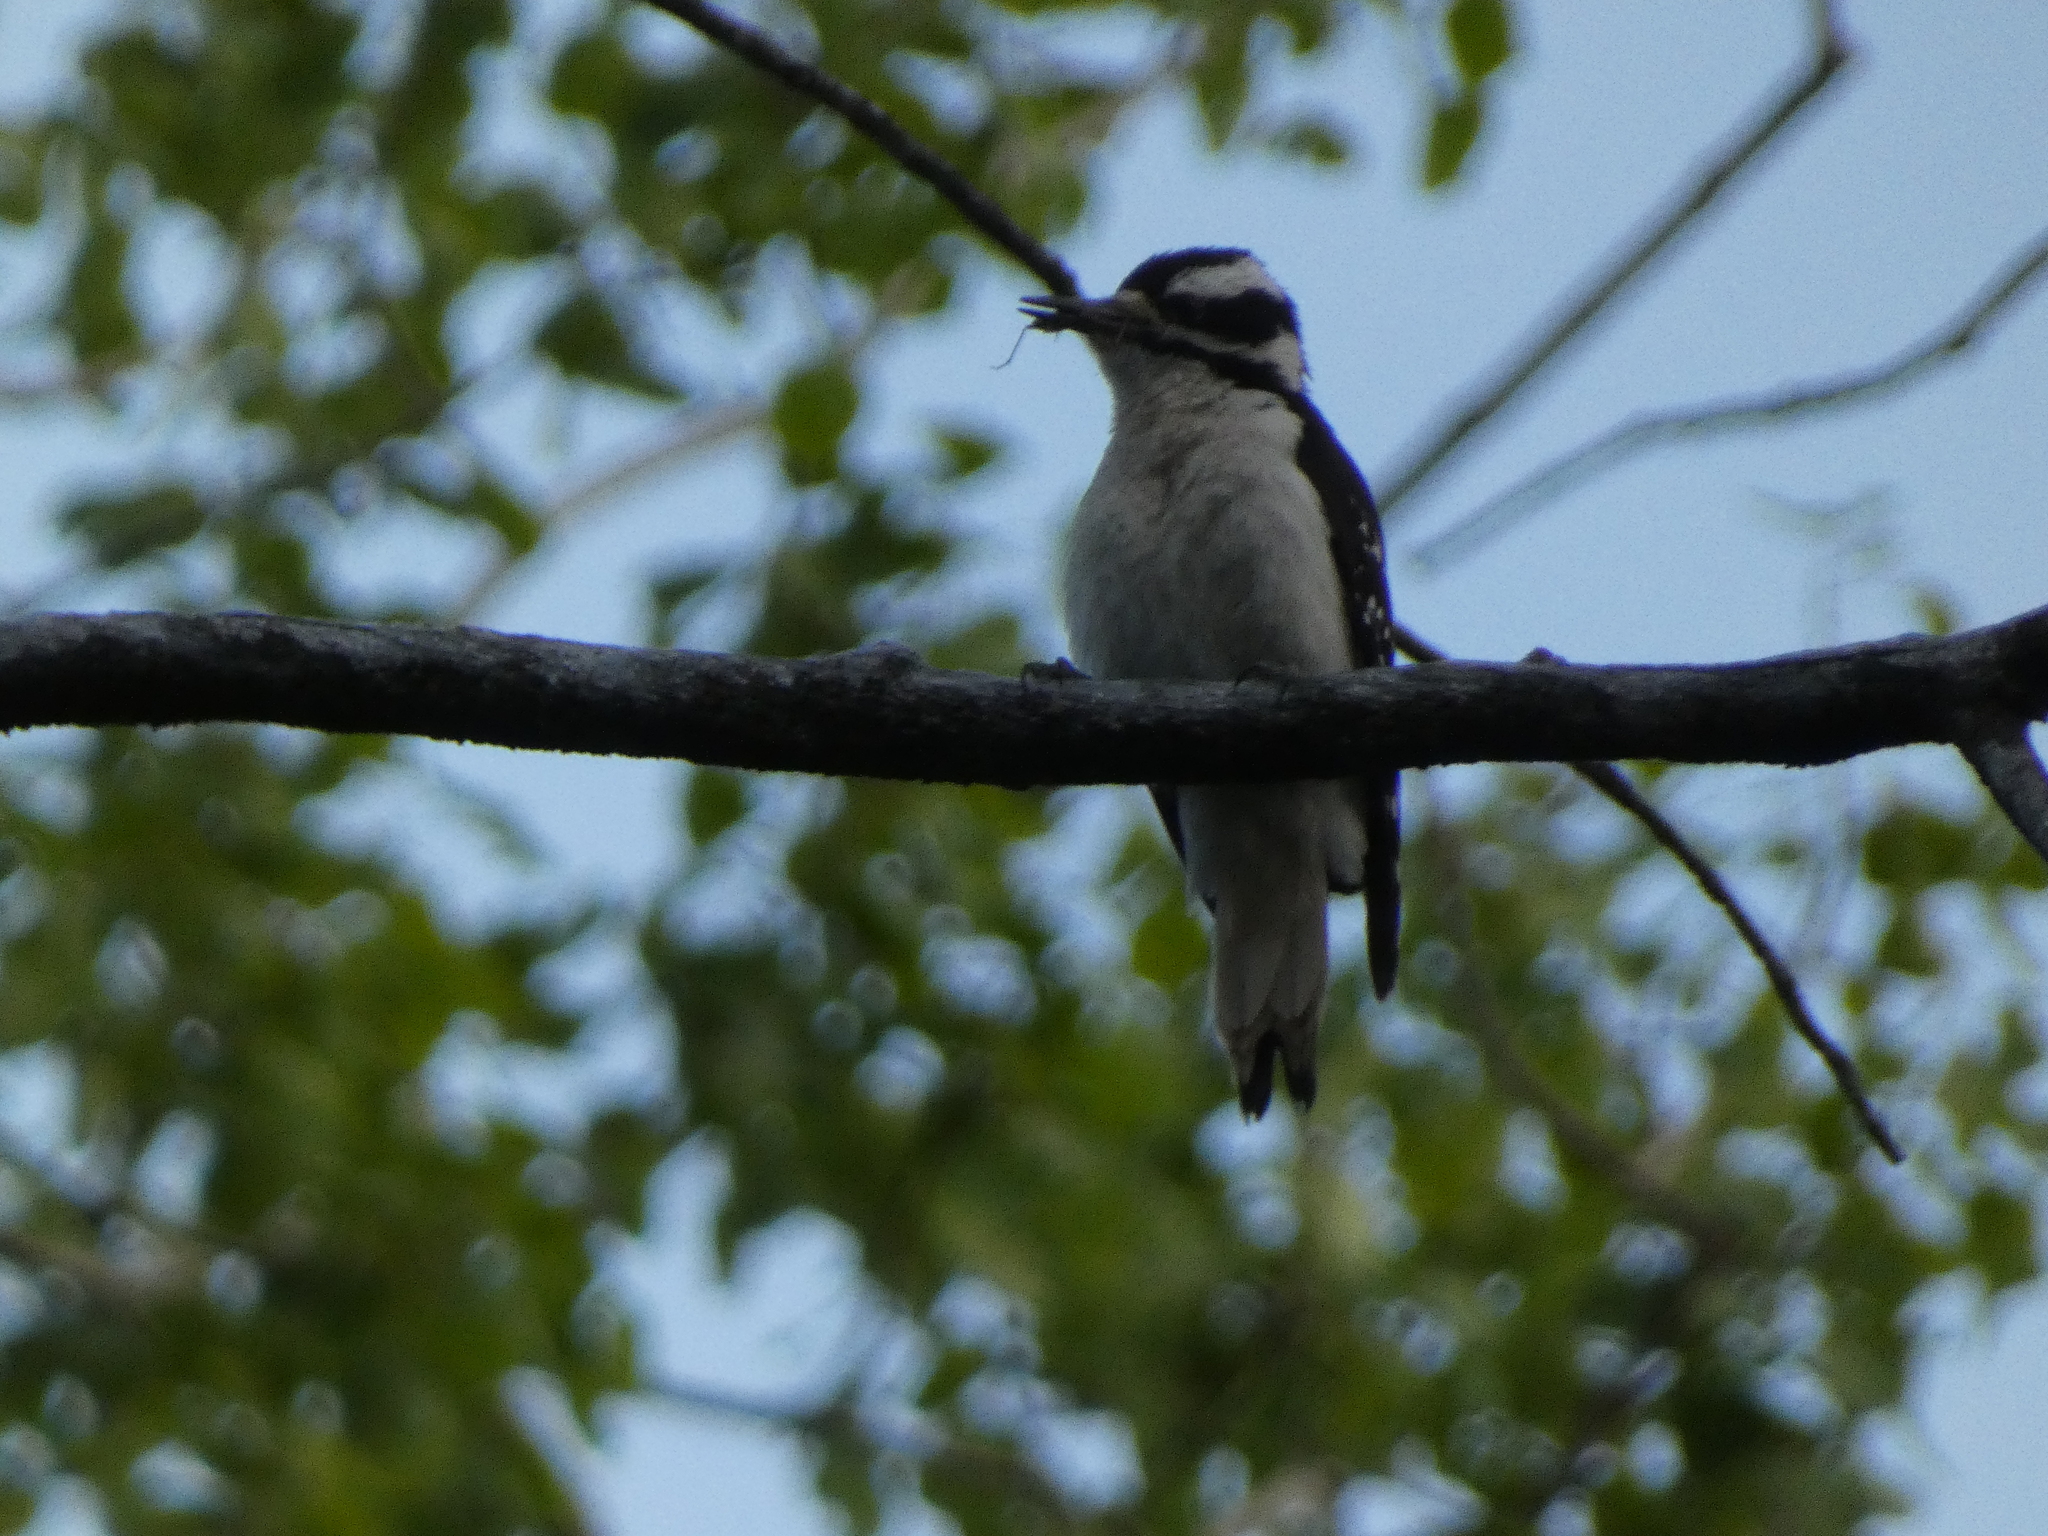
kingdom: Animalia
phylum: Chordata
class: Aves
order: Piciformes
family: Picidae
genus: Leuconotopicus
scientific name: Leuconotopicus villosus
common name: Hairy woodpecker
